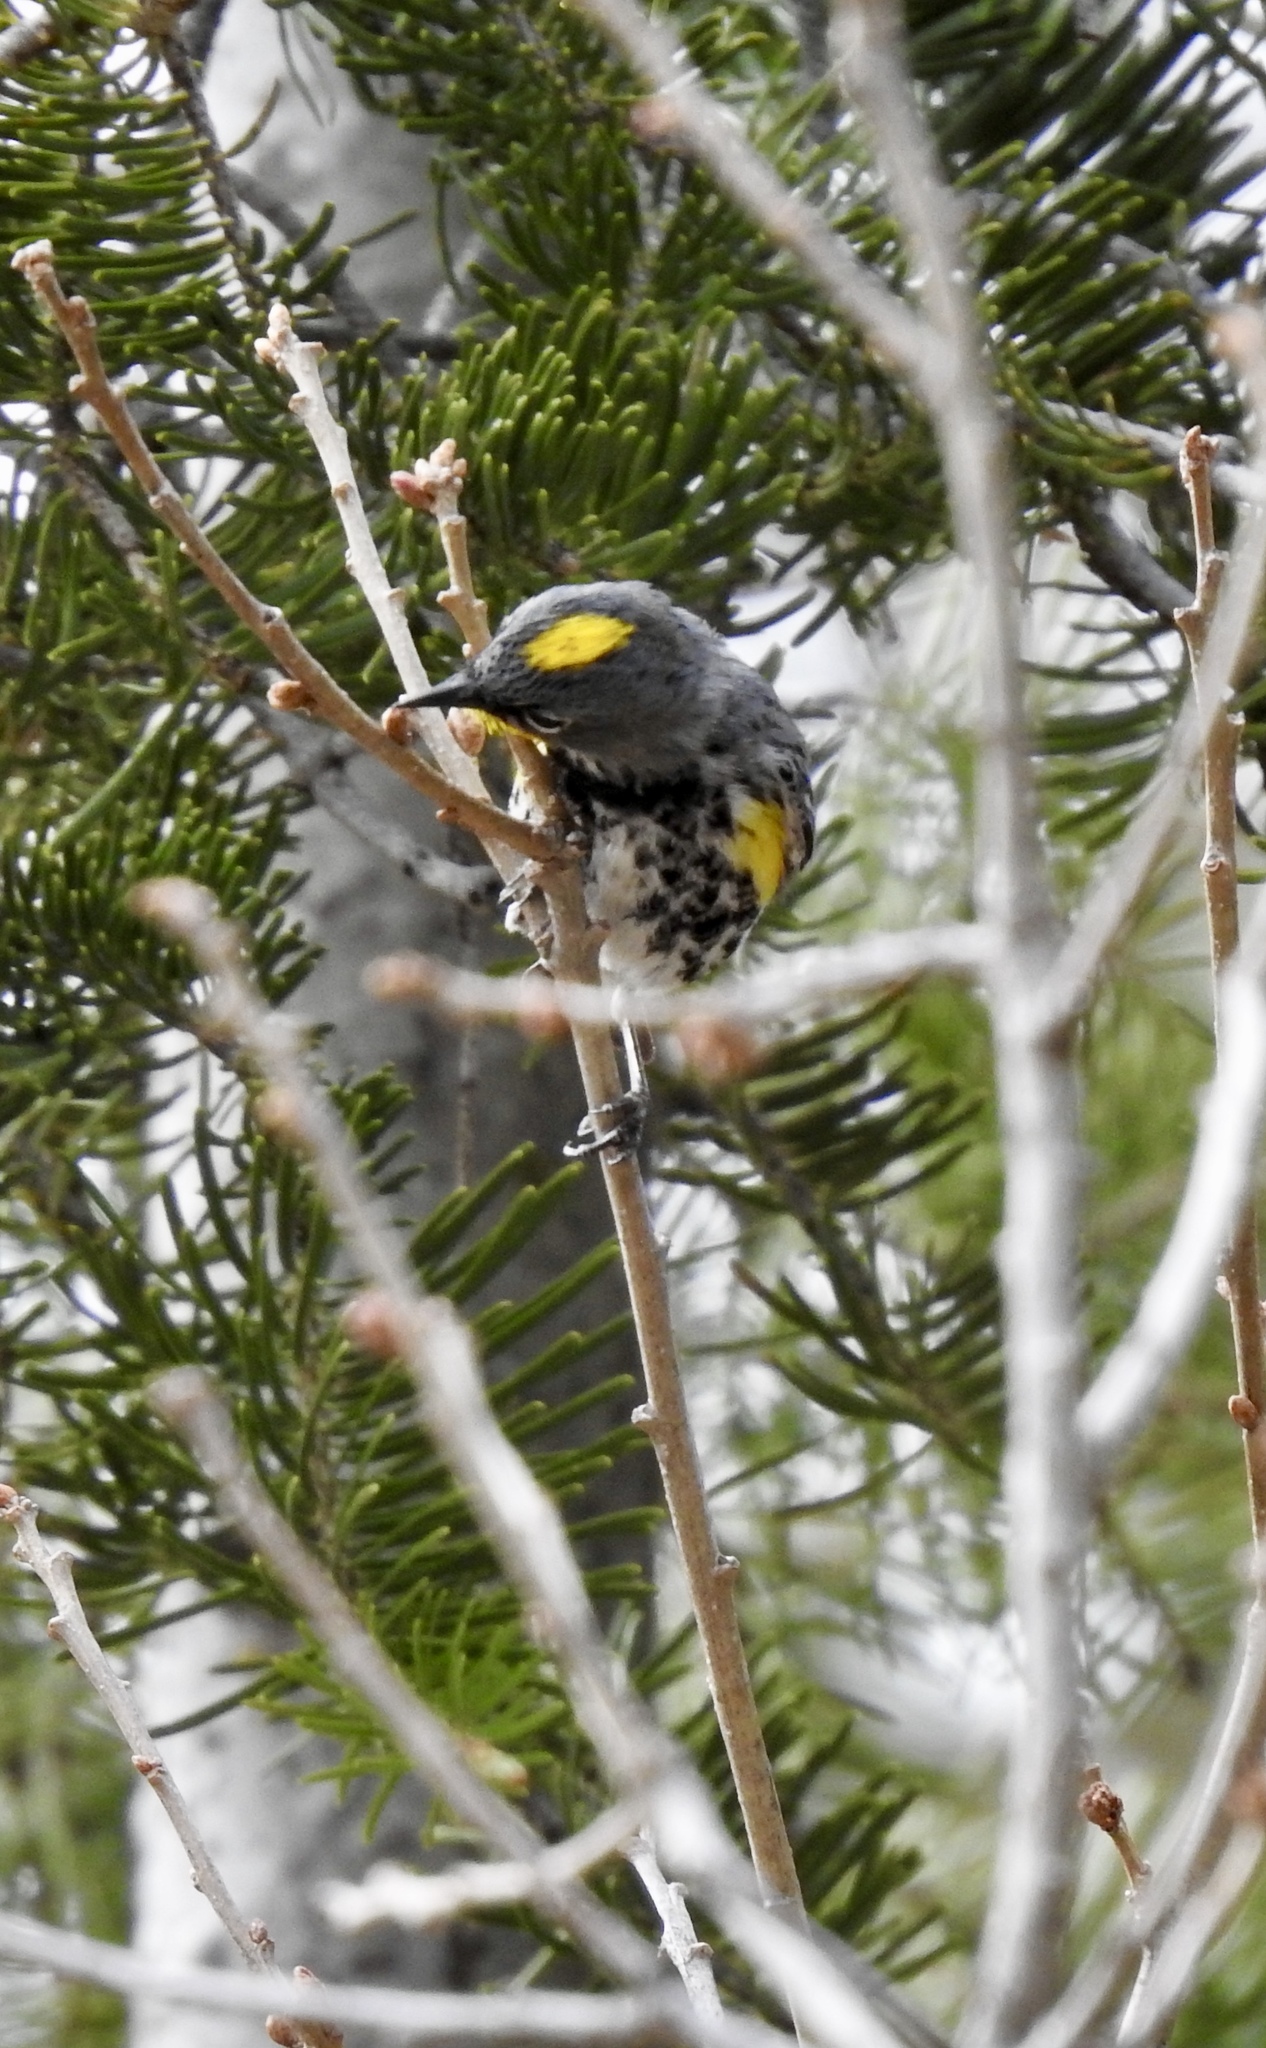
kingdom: Animalia
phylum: Chordata
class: Aves
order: Passeriformes
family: Parulidae
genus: Setophaga
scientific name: Setophaga auduboni
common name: Audubon's warbler
